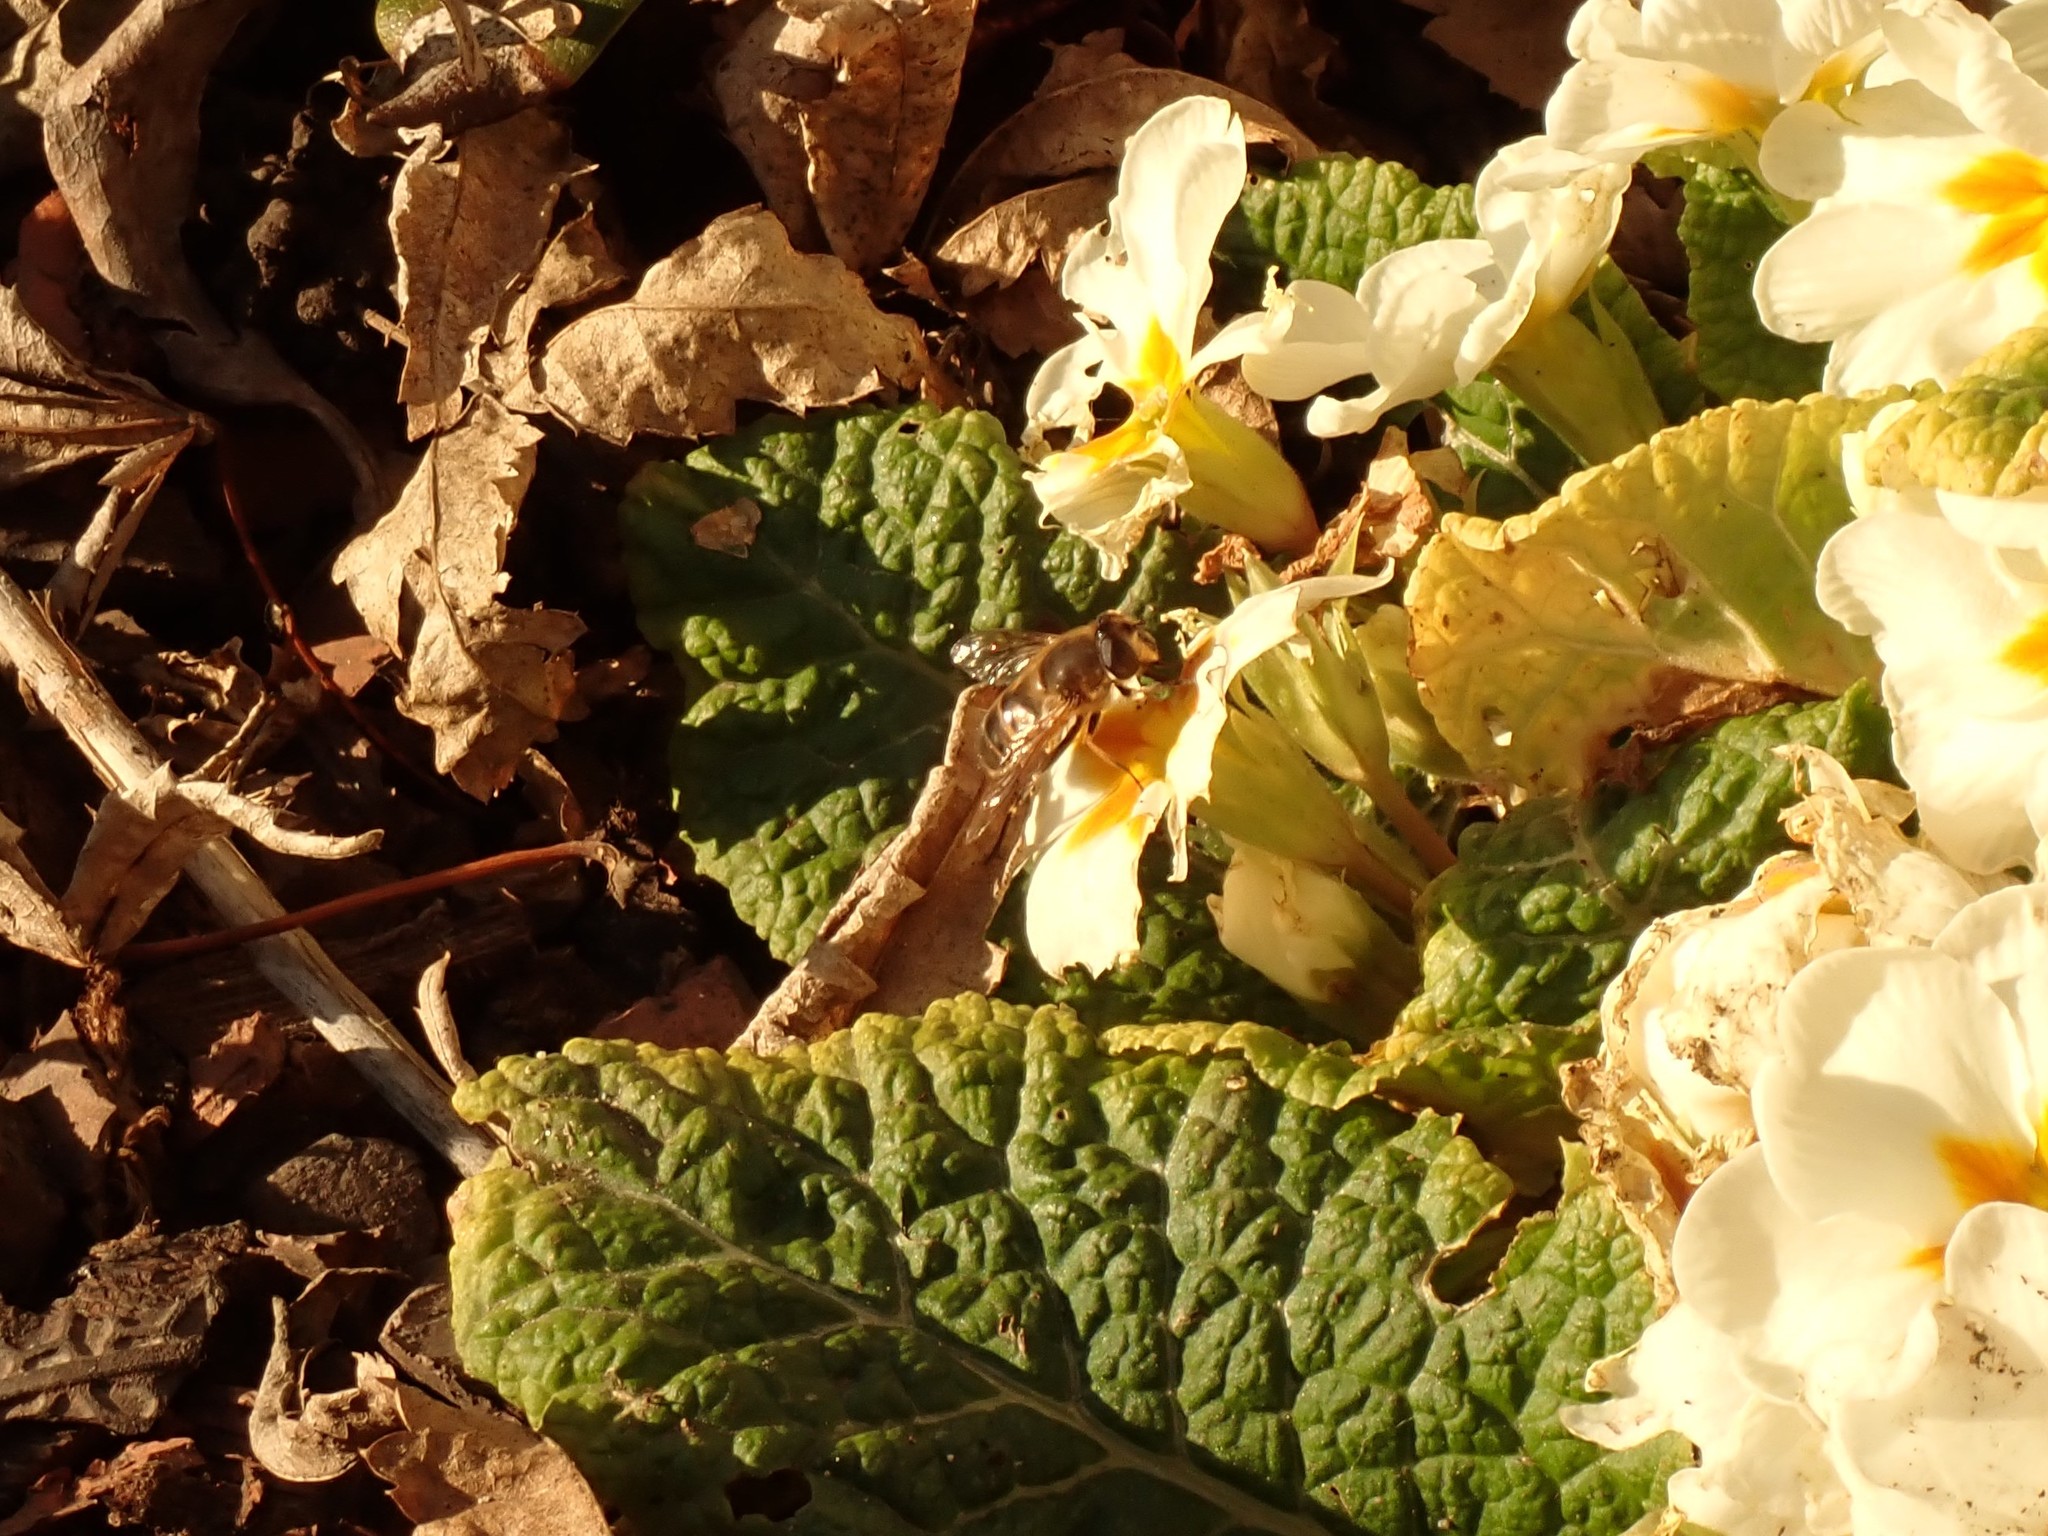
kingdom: Animalia
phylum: Arthropoda
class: Insecta
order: Diptera
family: Syrphidae
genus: Eristalis
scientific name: Eristalis tenax
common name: Drone fly
